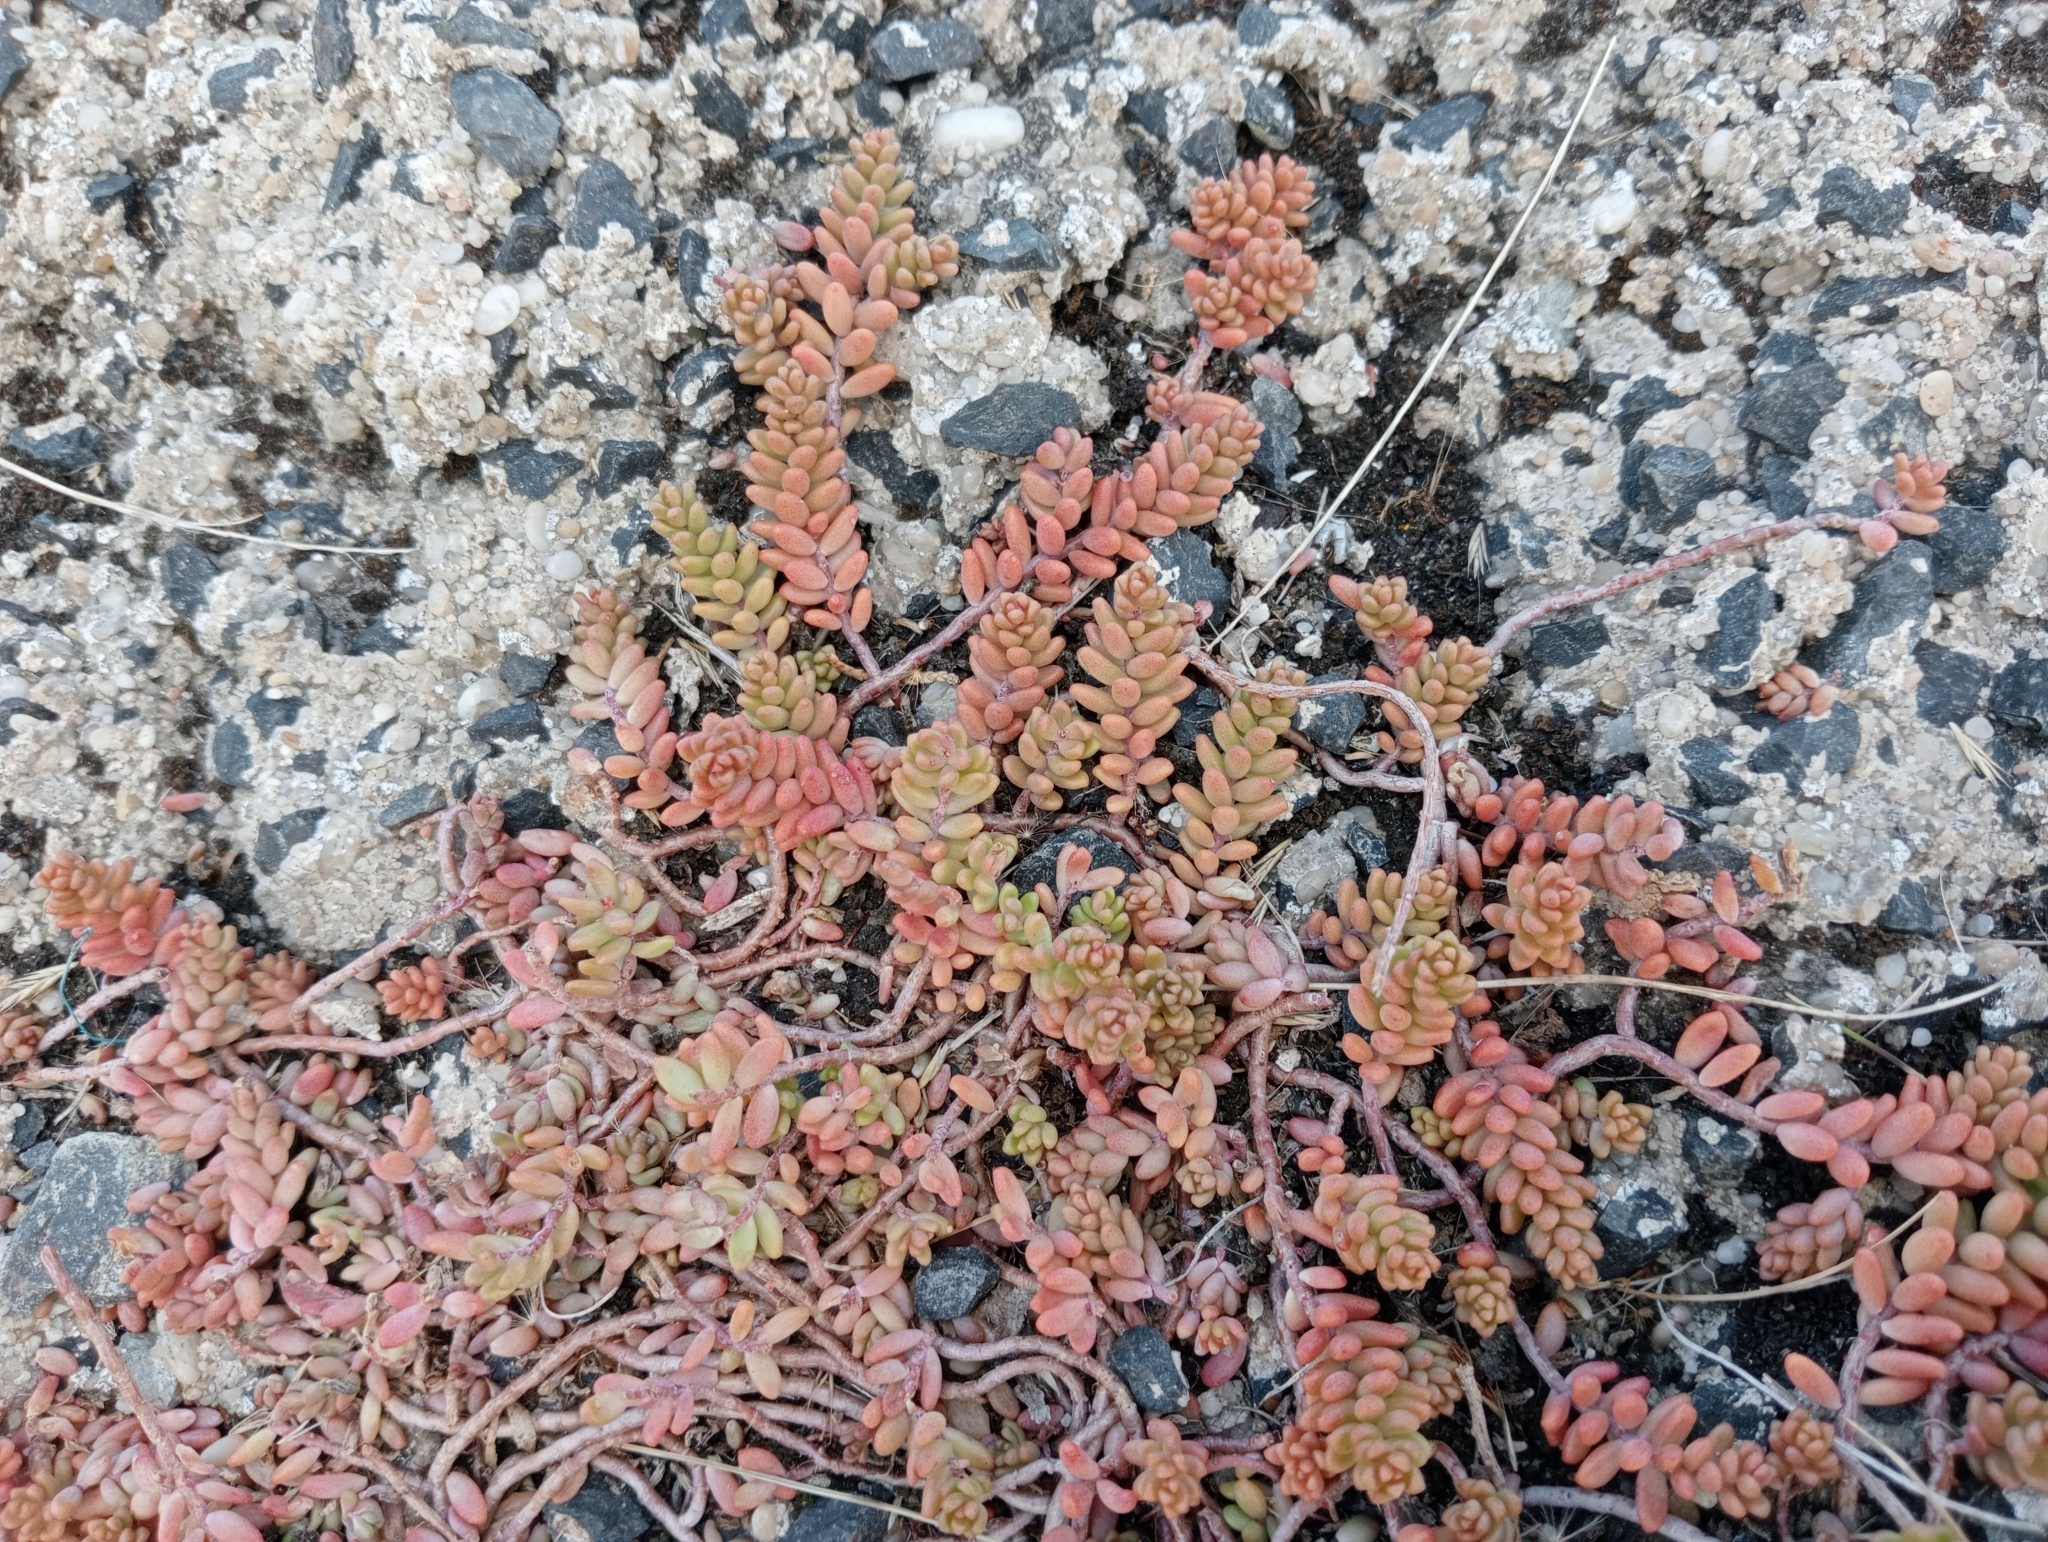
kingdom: Plantae
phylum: Tracheophyta
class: Magnoliopsida
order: Saxifragales
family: Crassulaceae
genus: Sedum
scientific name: Sedum album
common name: White stonecrop
